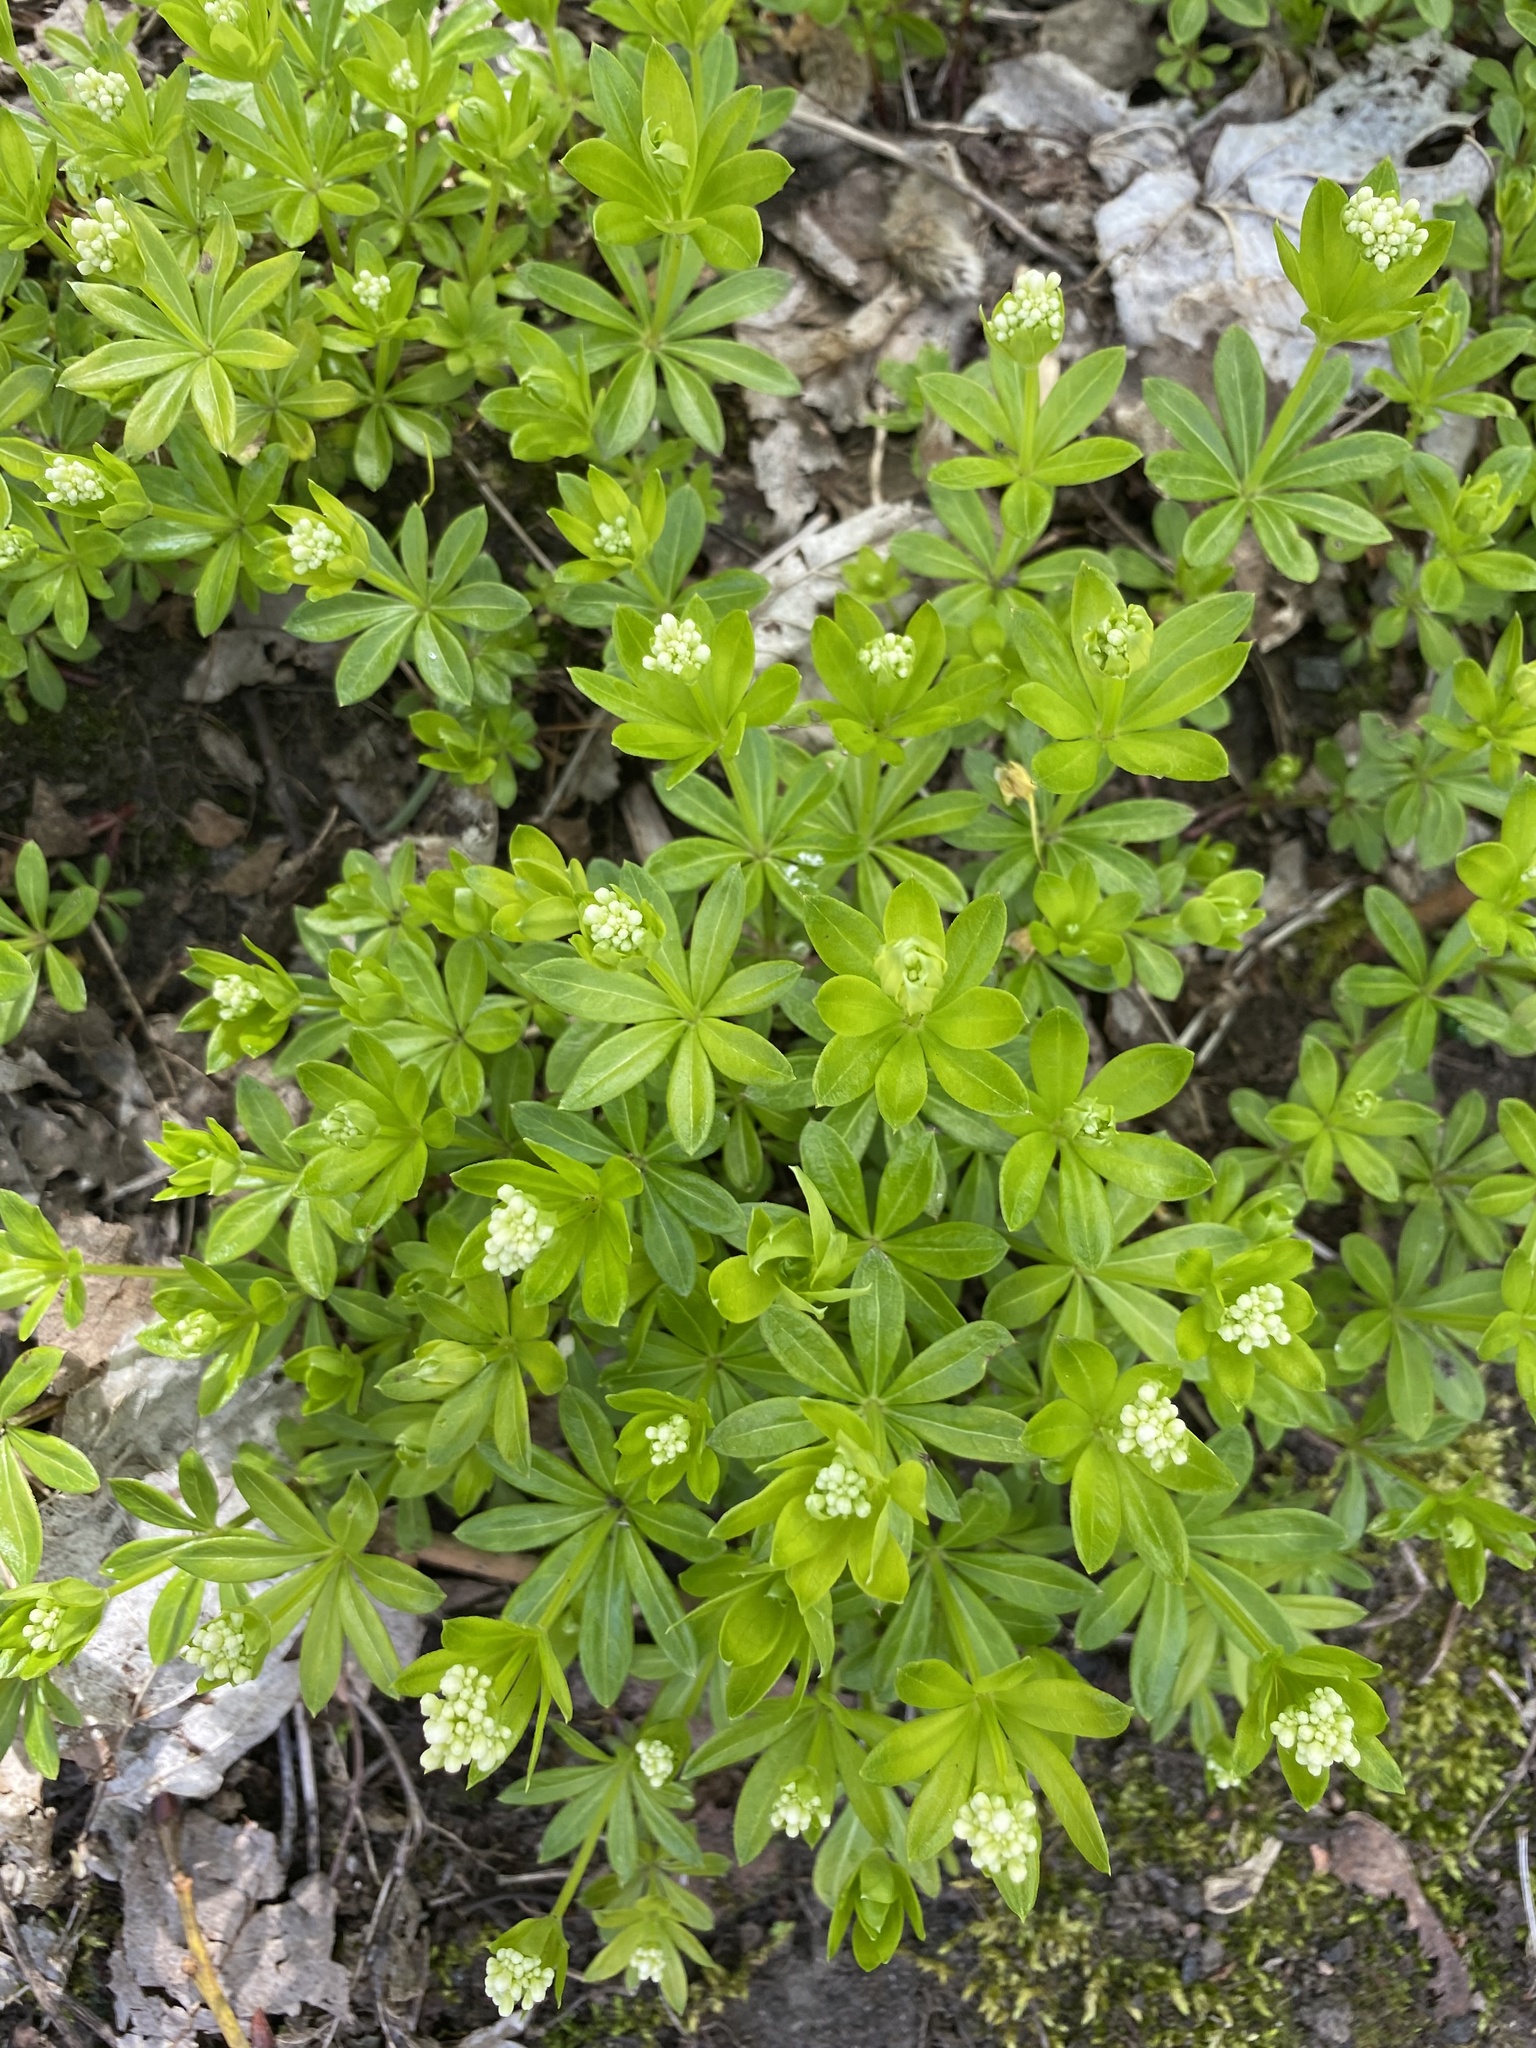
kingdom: Plantae
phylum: Tracheophyta
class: Magnoliopsida
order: Gentianales
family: Rubiaceae
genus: Galium
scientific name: Galium odoratum
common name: Sweet woodruff
